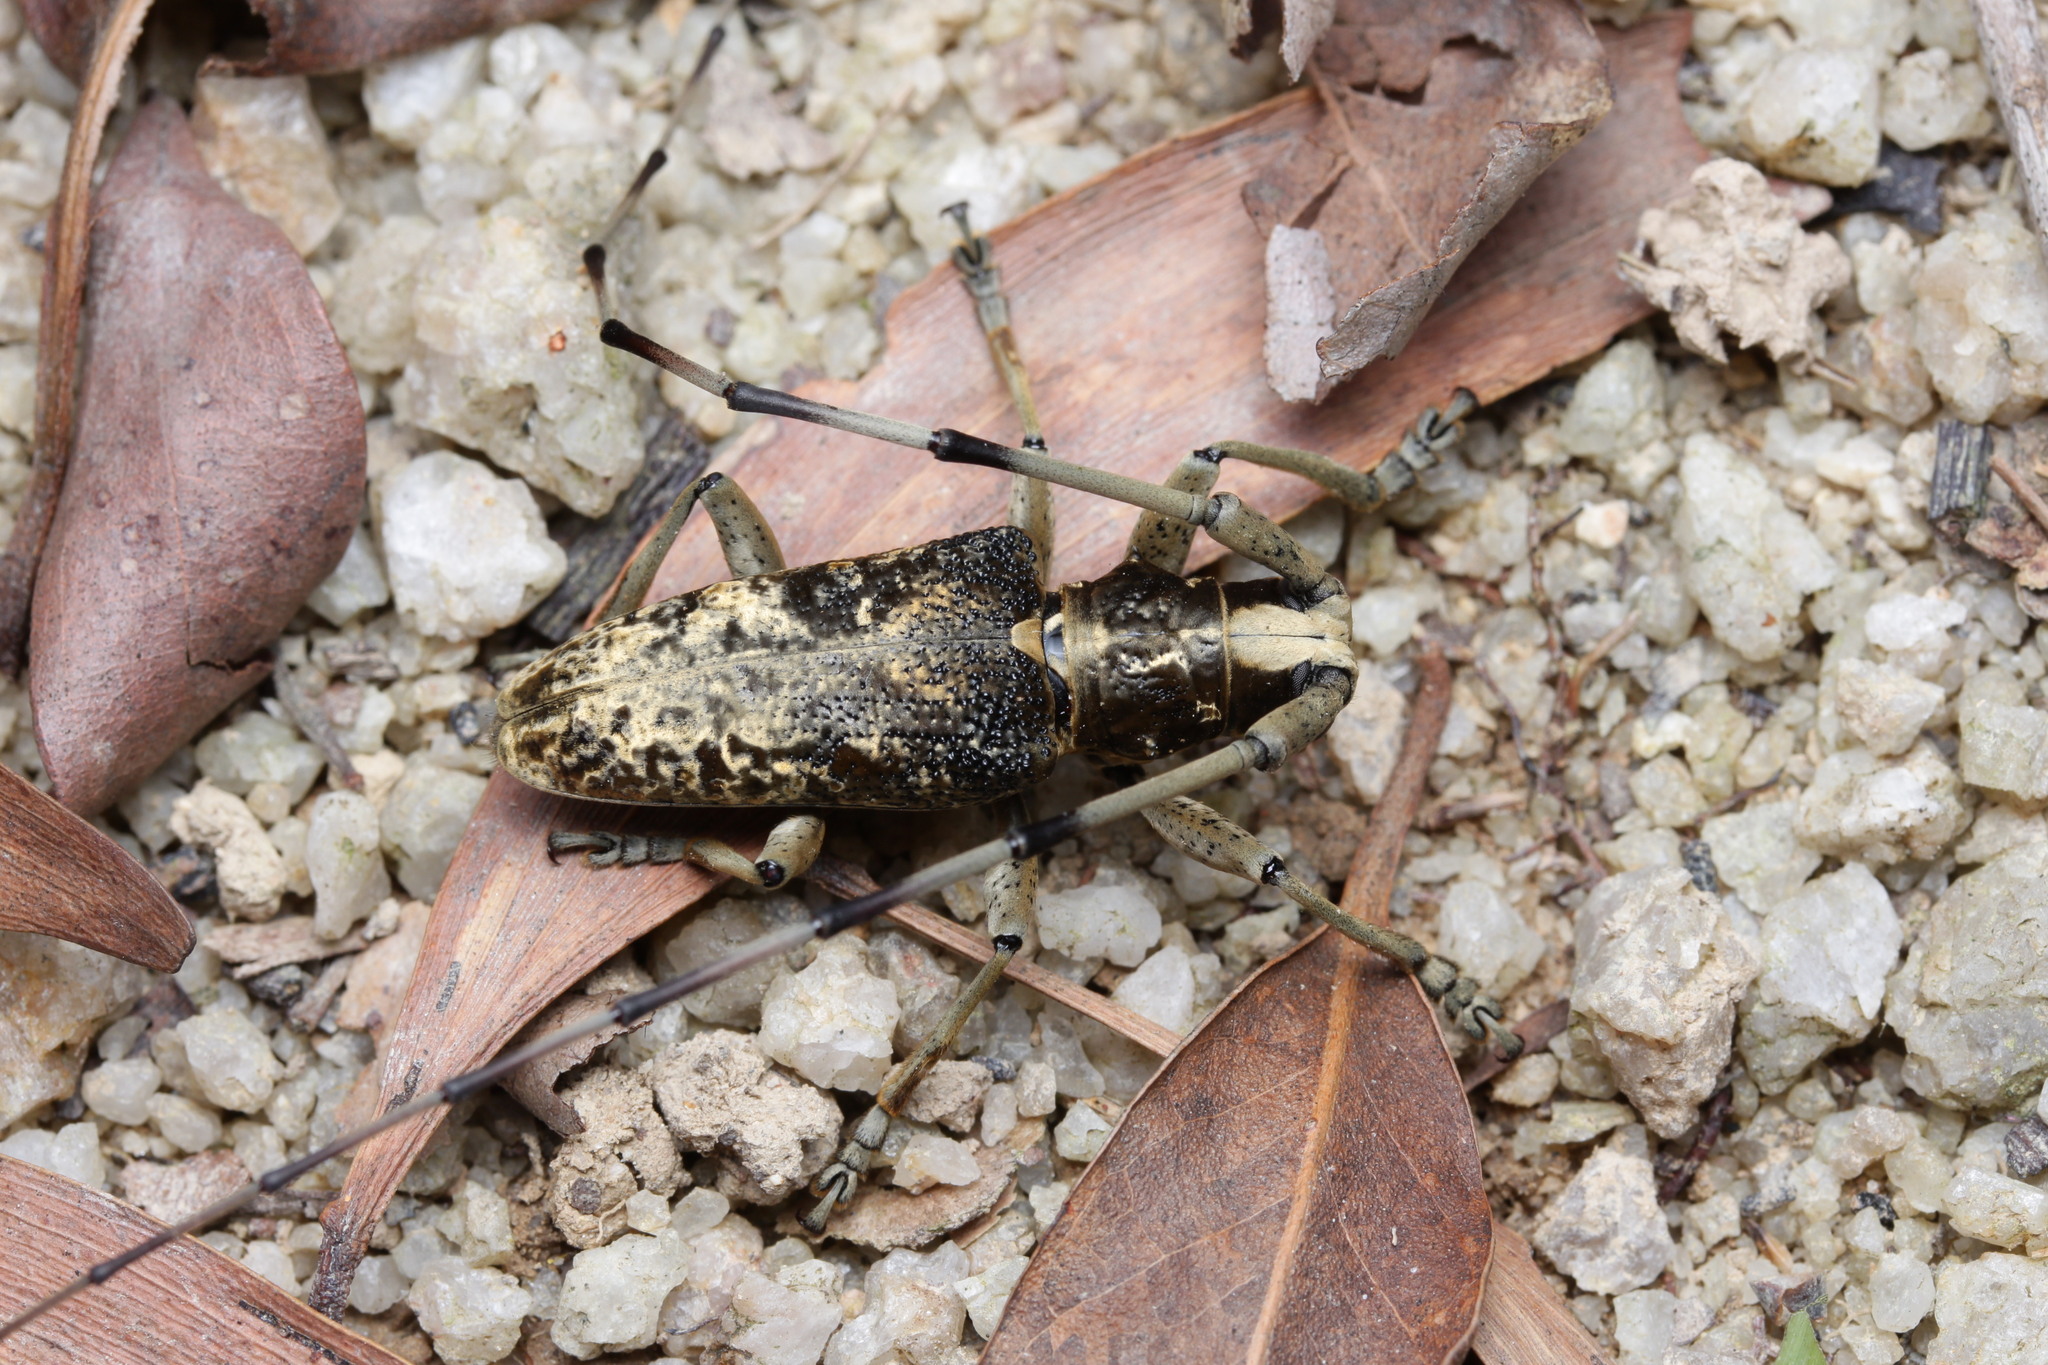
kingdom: Animalia
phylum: Arthropoda
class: Insecta
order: Coleoptera
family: Cerambycidae
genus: Acalolepta
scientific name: Acalolepta permutans
